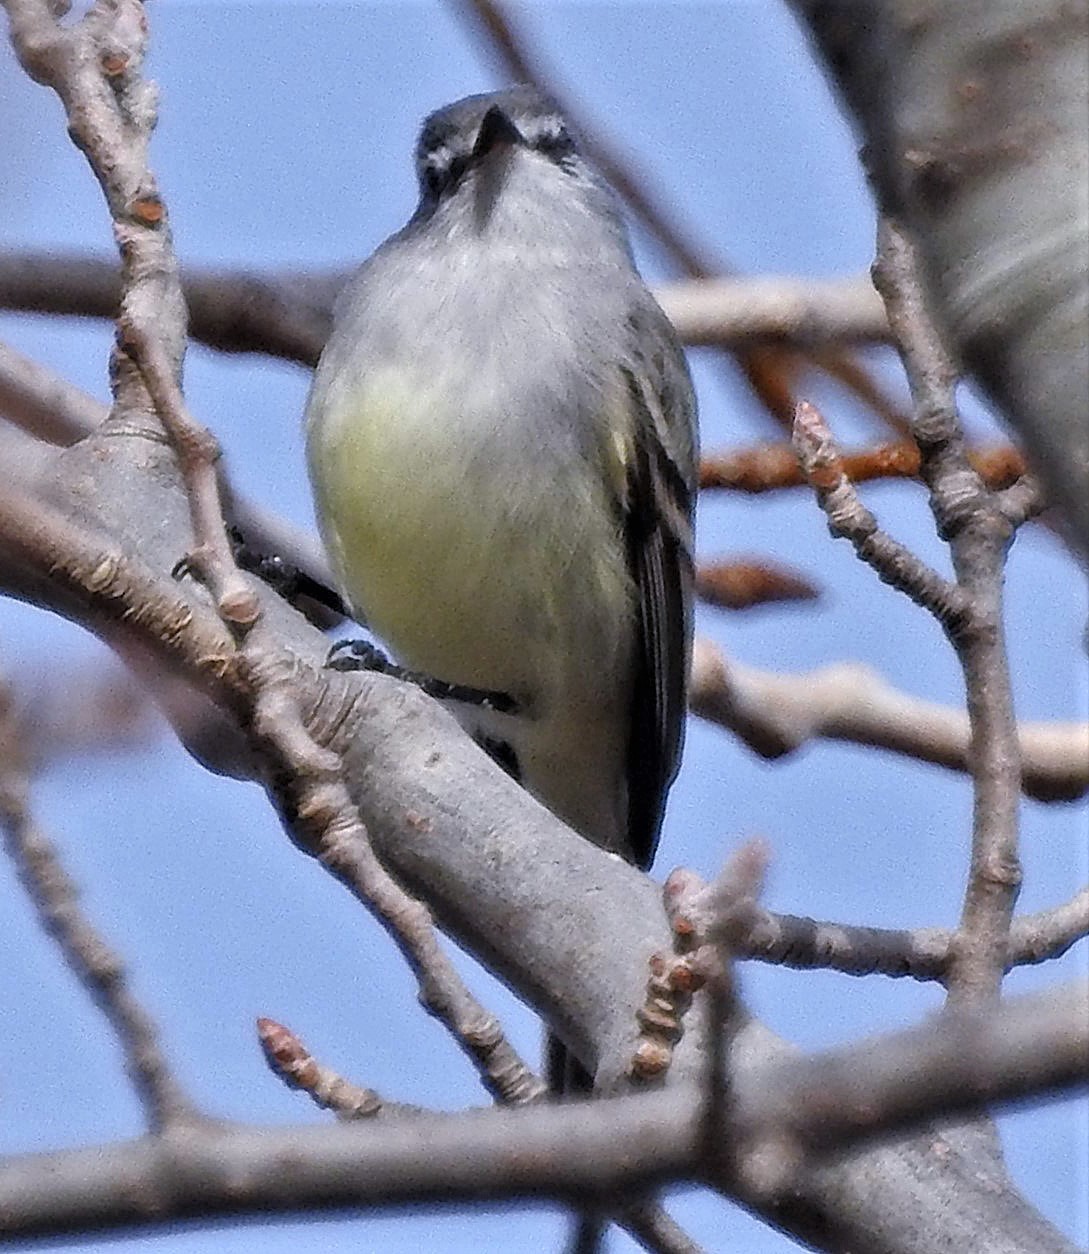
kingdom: Animalia
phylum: Chordata
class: Aves
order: Passeriformes
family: Tyrannidae
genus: Serpophaga
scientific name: Serpophaga subcristata
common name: White-crested tyrannulet
